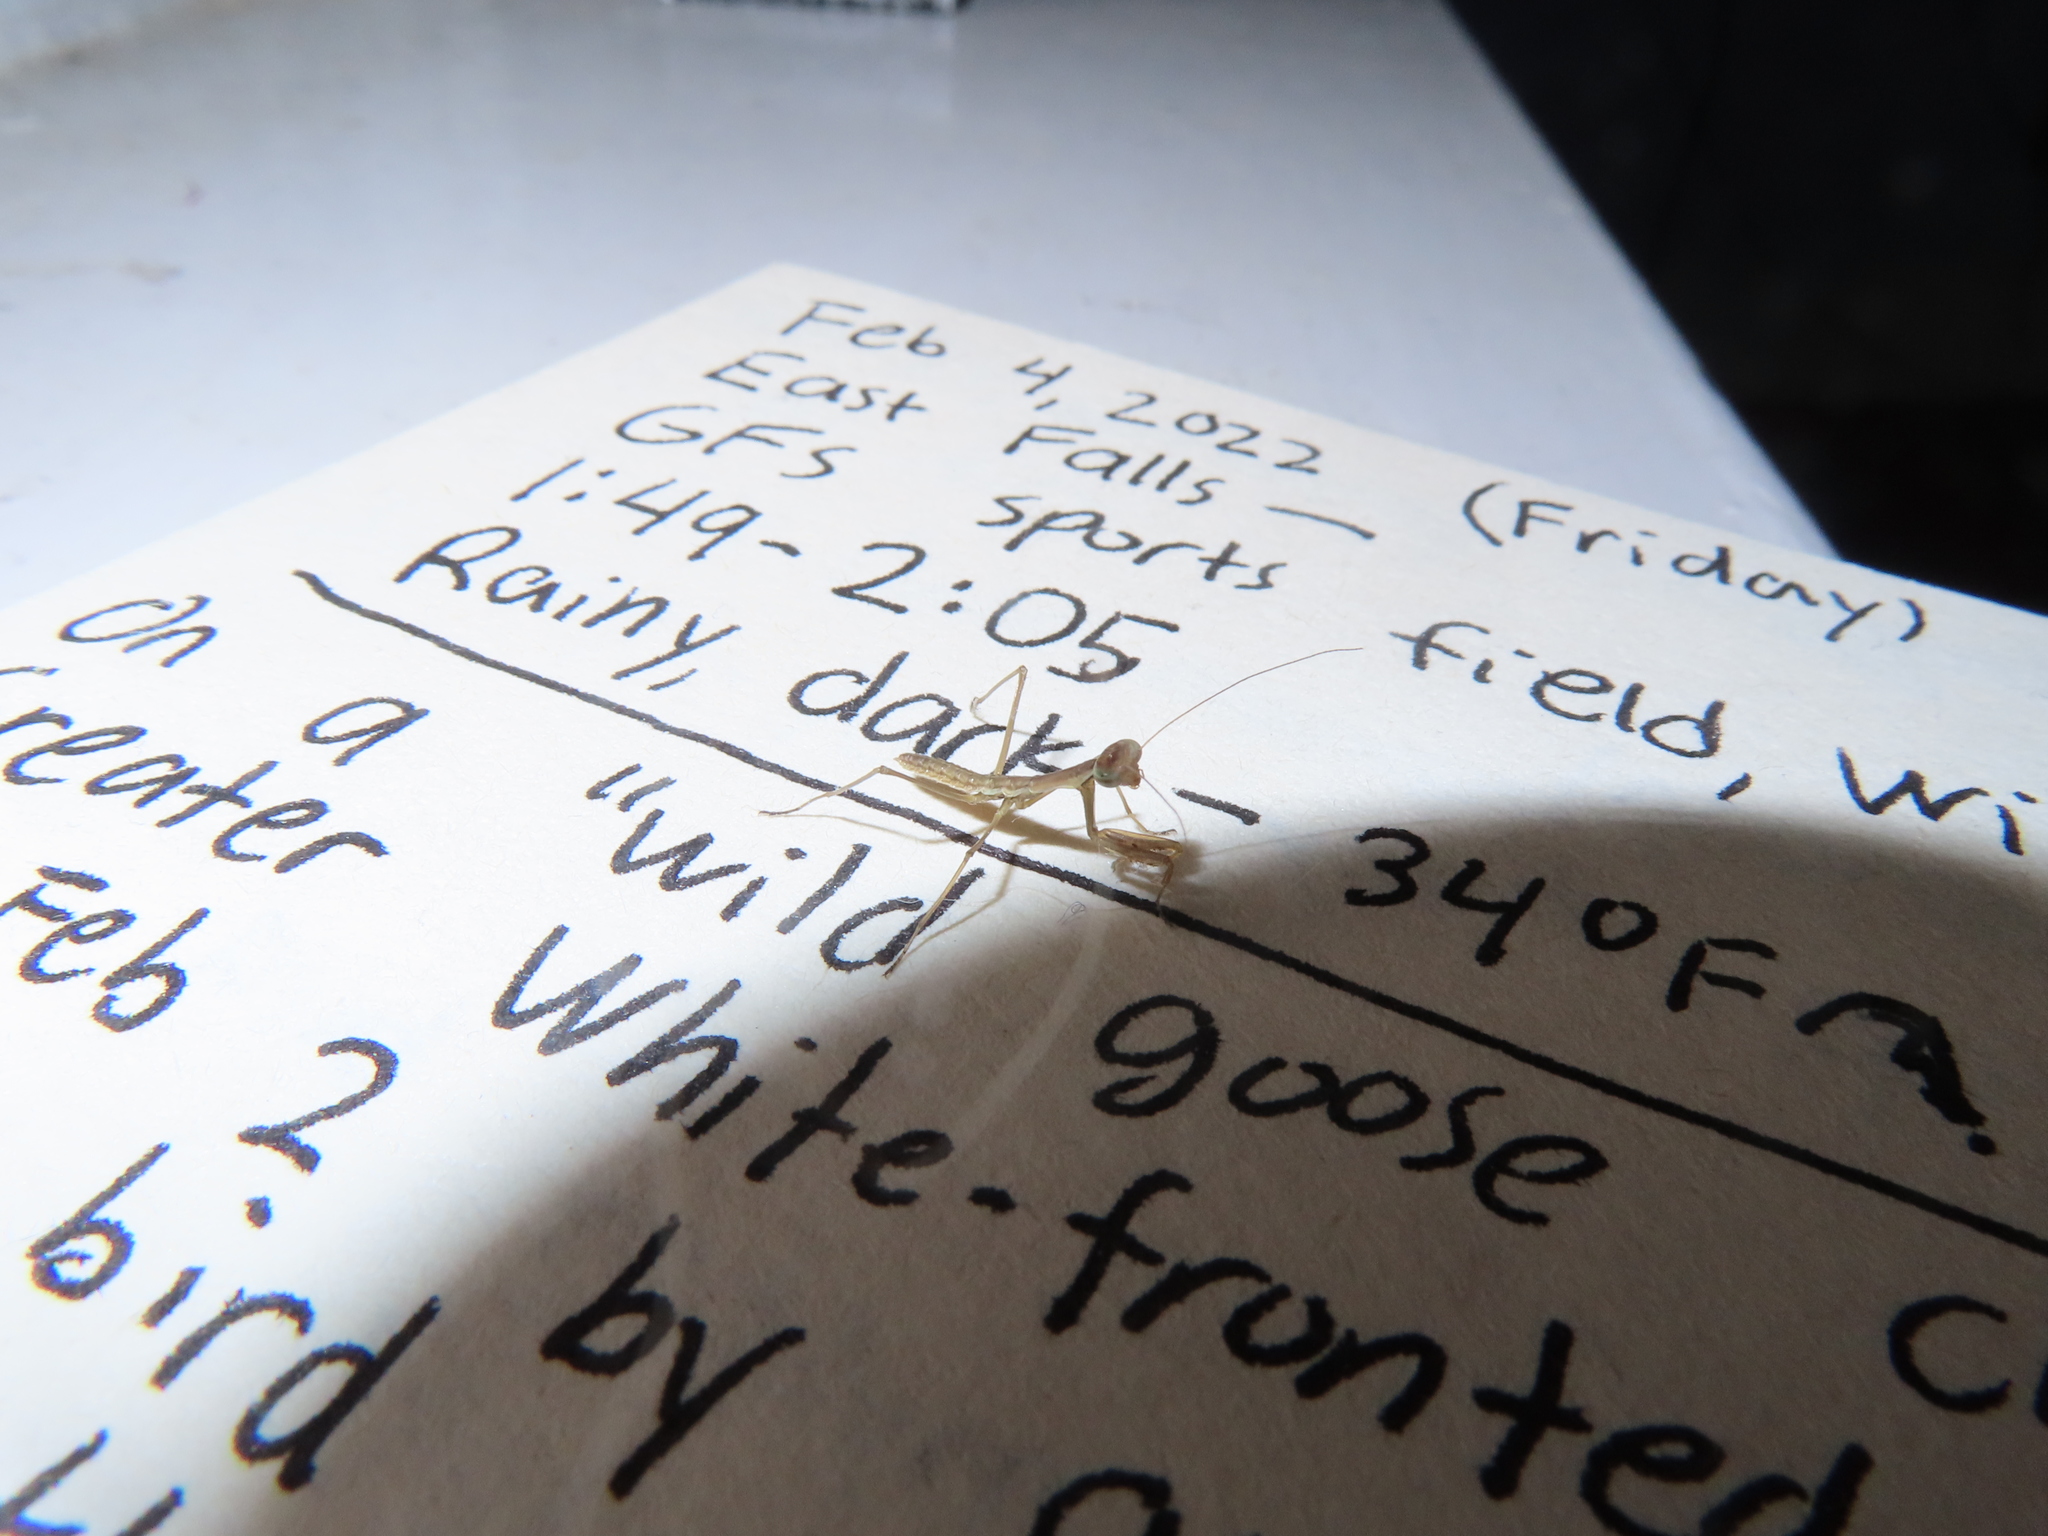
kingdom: Animalia
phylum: Arthropoda
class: Insecta
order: Mantodea
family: Mantidae
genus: Tenodera
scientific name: Tenodera sinensis
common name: Chinese mantis
